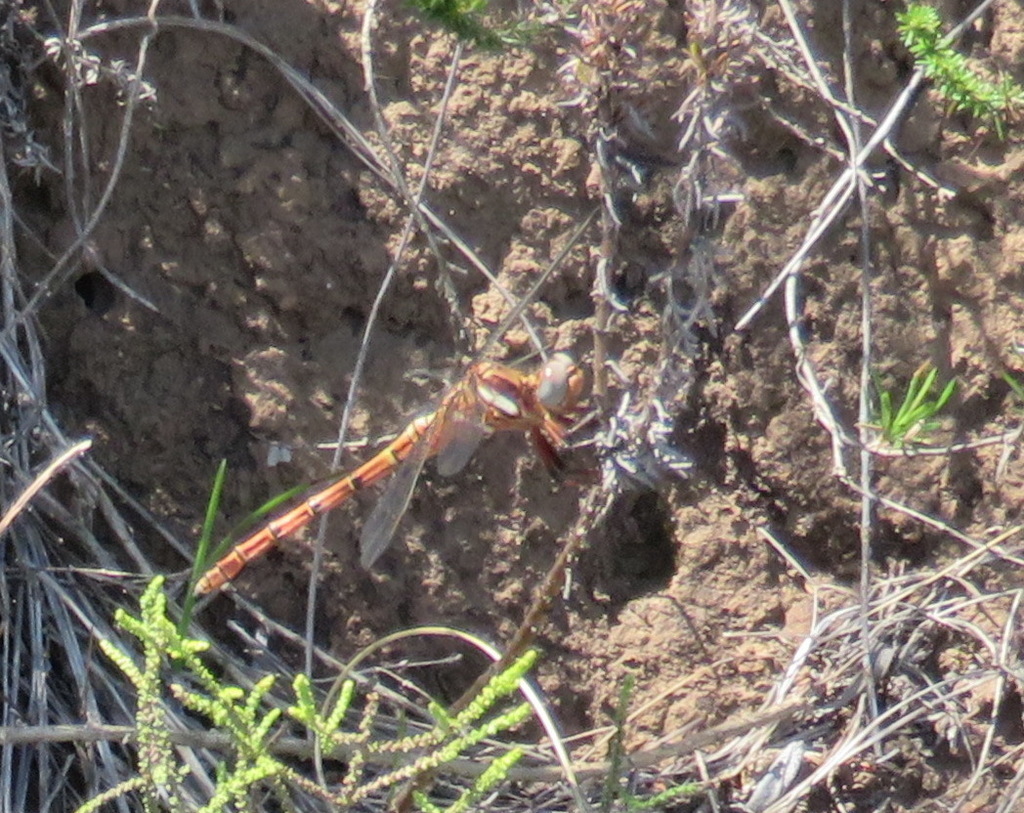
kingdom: Animalia
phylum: Arthropoda
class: Insecta
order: Odonata
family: Libellulidae
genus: Orthetrum
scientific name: Orthetrum julia
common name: Julia skimmer
